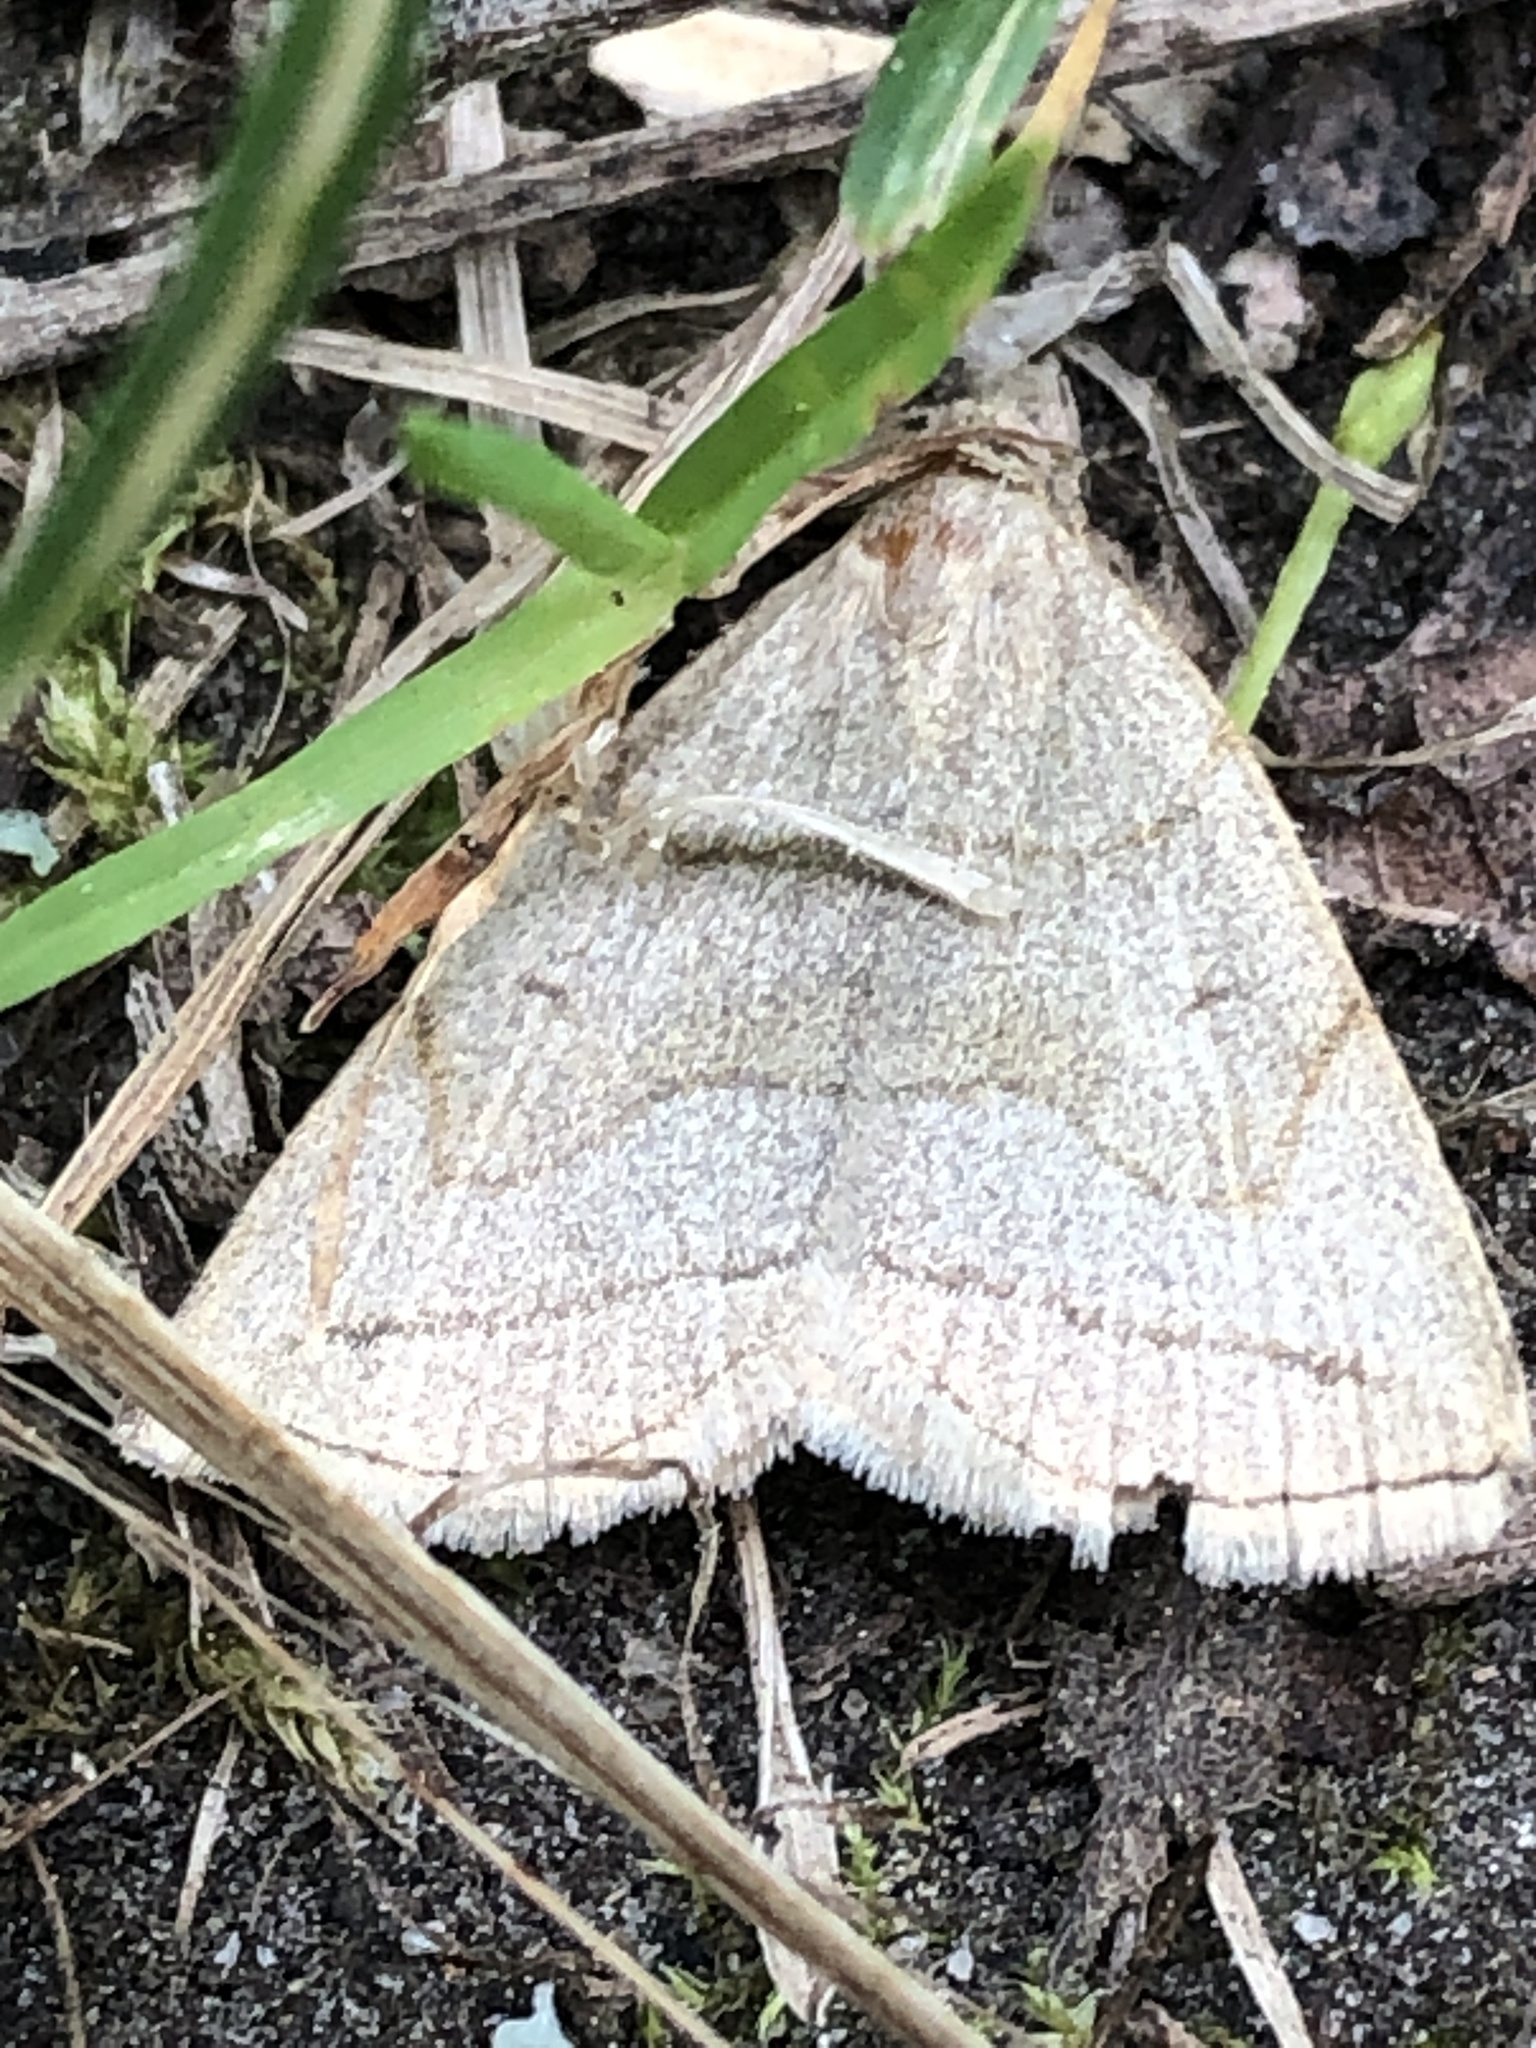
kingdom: Animalia
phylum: Arthropoda
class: Insecta
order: Lepidoptera
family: Erebidae
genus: Zanclognatha
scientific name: Zanclognatha pedipilalis
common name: Grayish fan-foot
